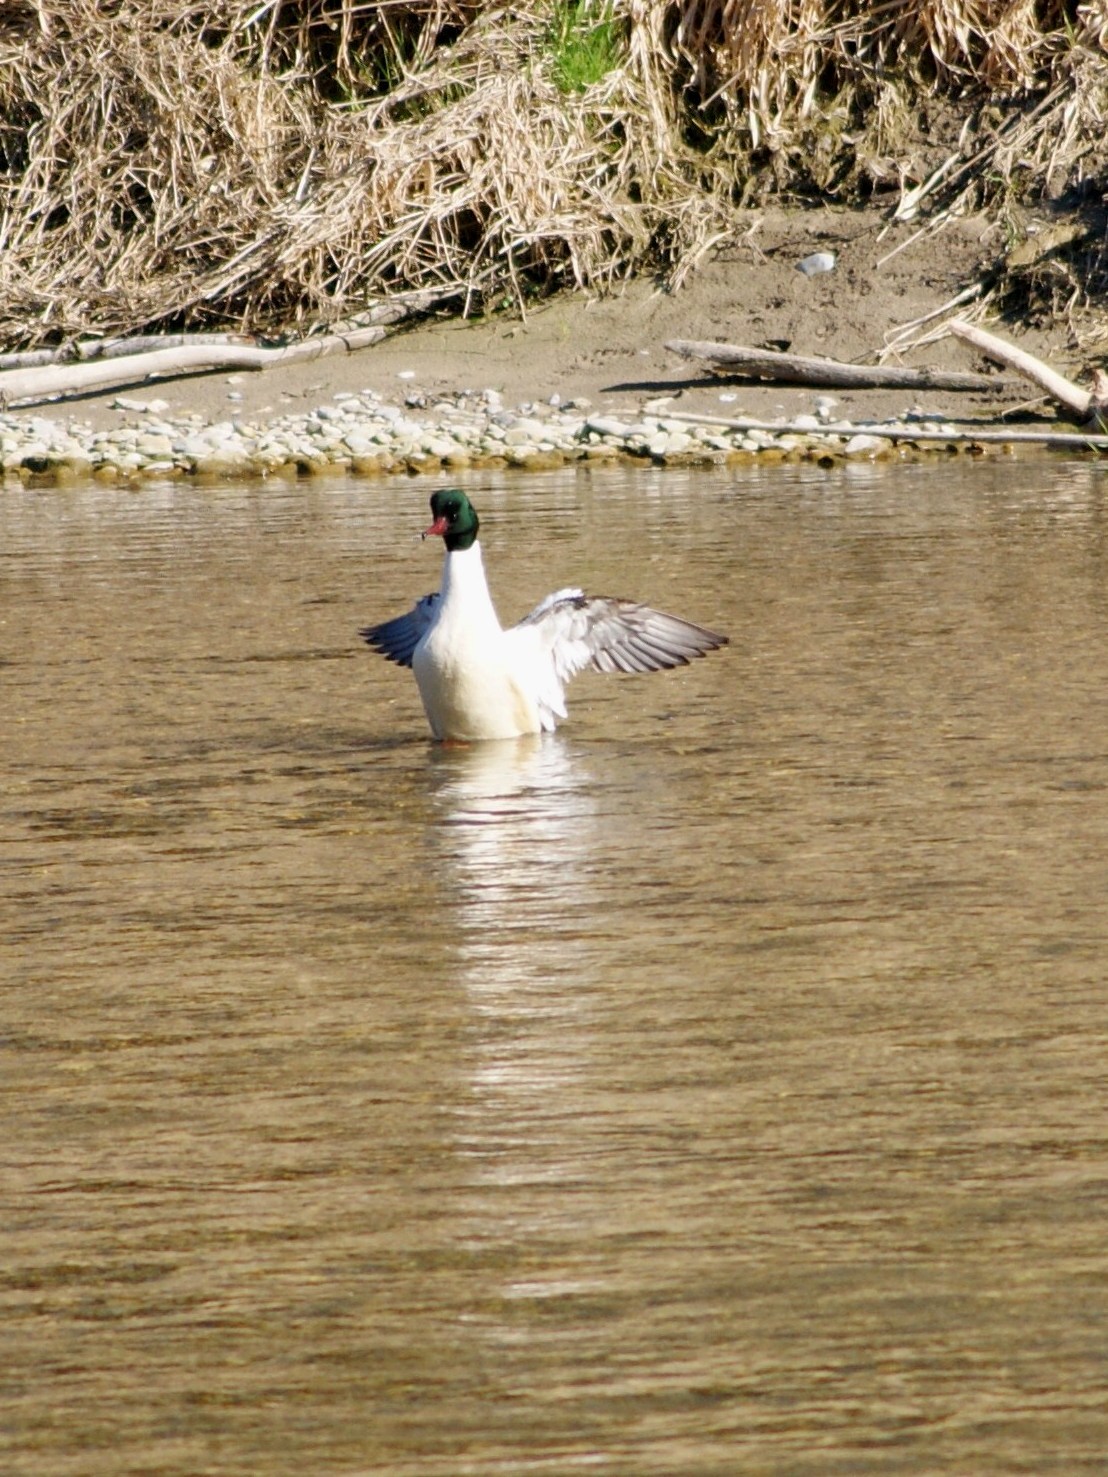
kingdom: Animalia
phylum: Chordata
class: Aves
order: Anseriformes
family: Anatidae
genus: Mergus
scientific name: Mergus merganser
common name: Common merganser
